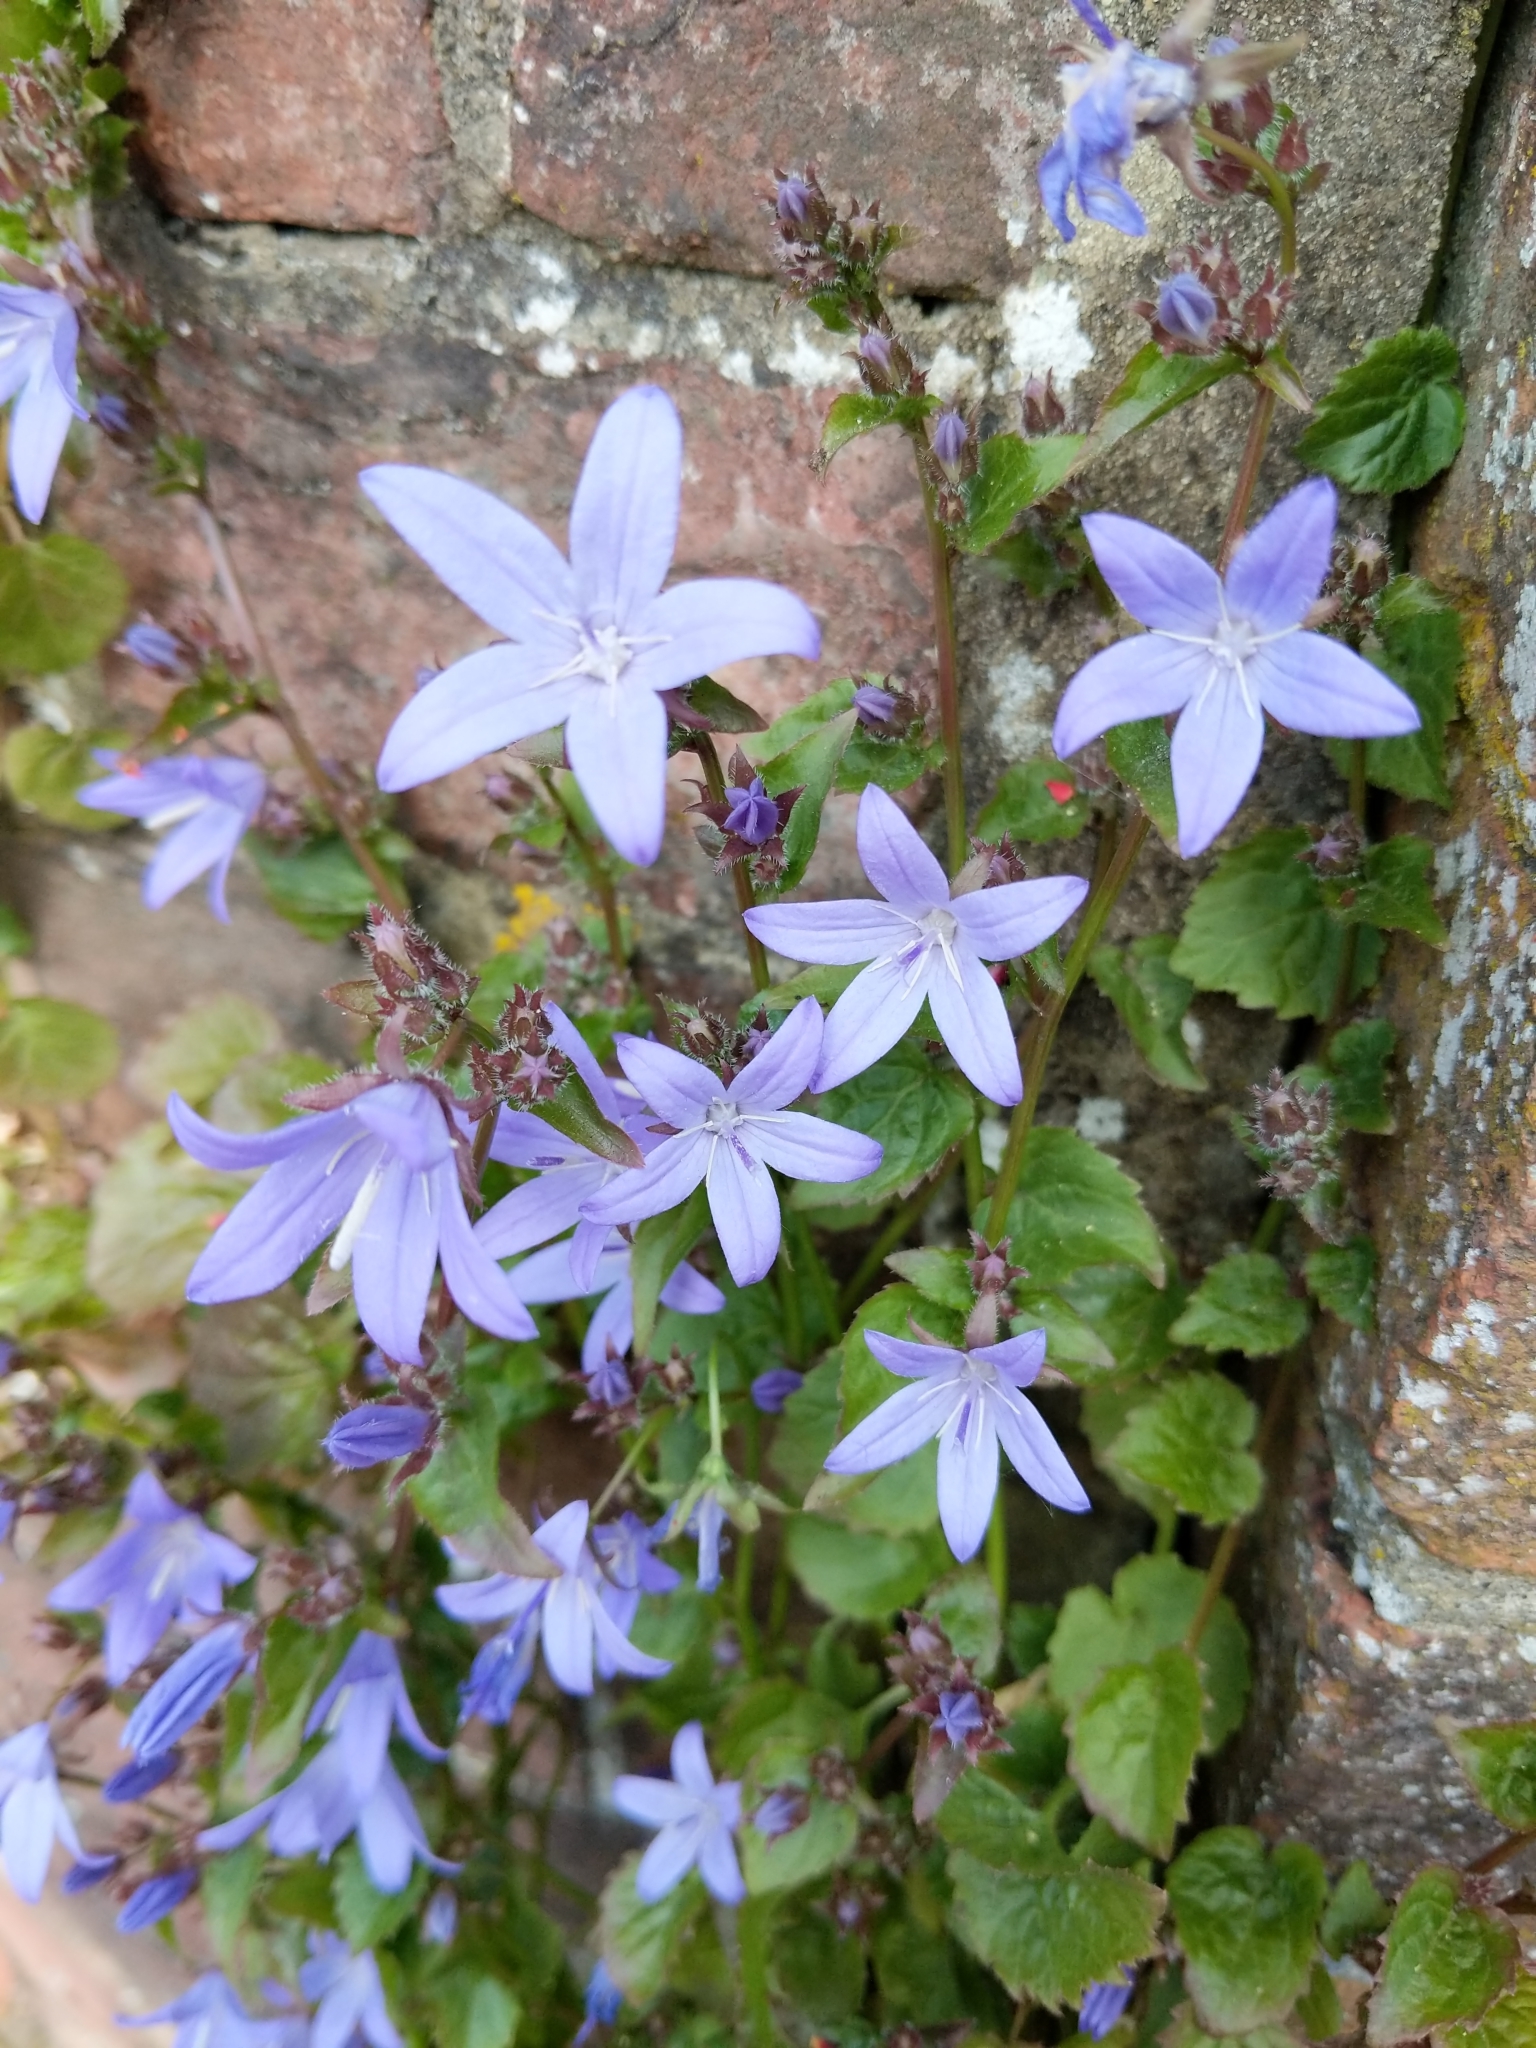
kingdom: Plantae
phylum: Tracheophyta
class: Magnoliopsida
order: Asterales
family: Campanulaceae
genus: Campanula
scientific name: Campanula poscharskyana
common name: Trailing bellflower
